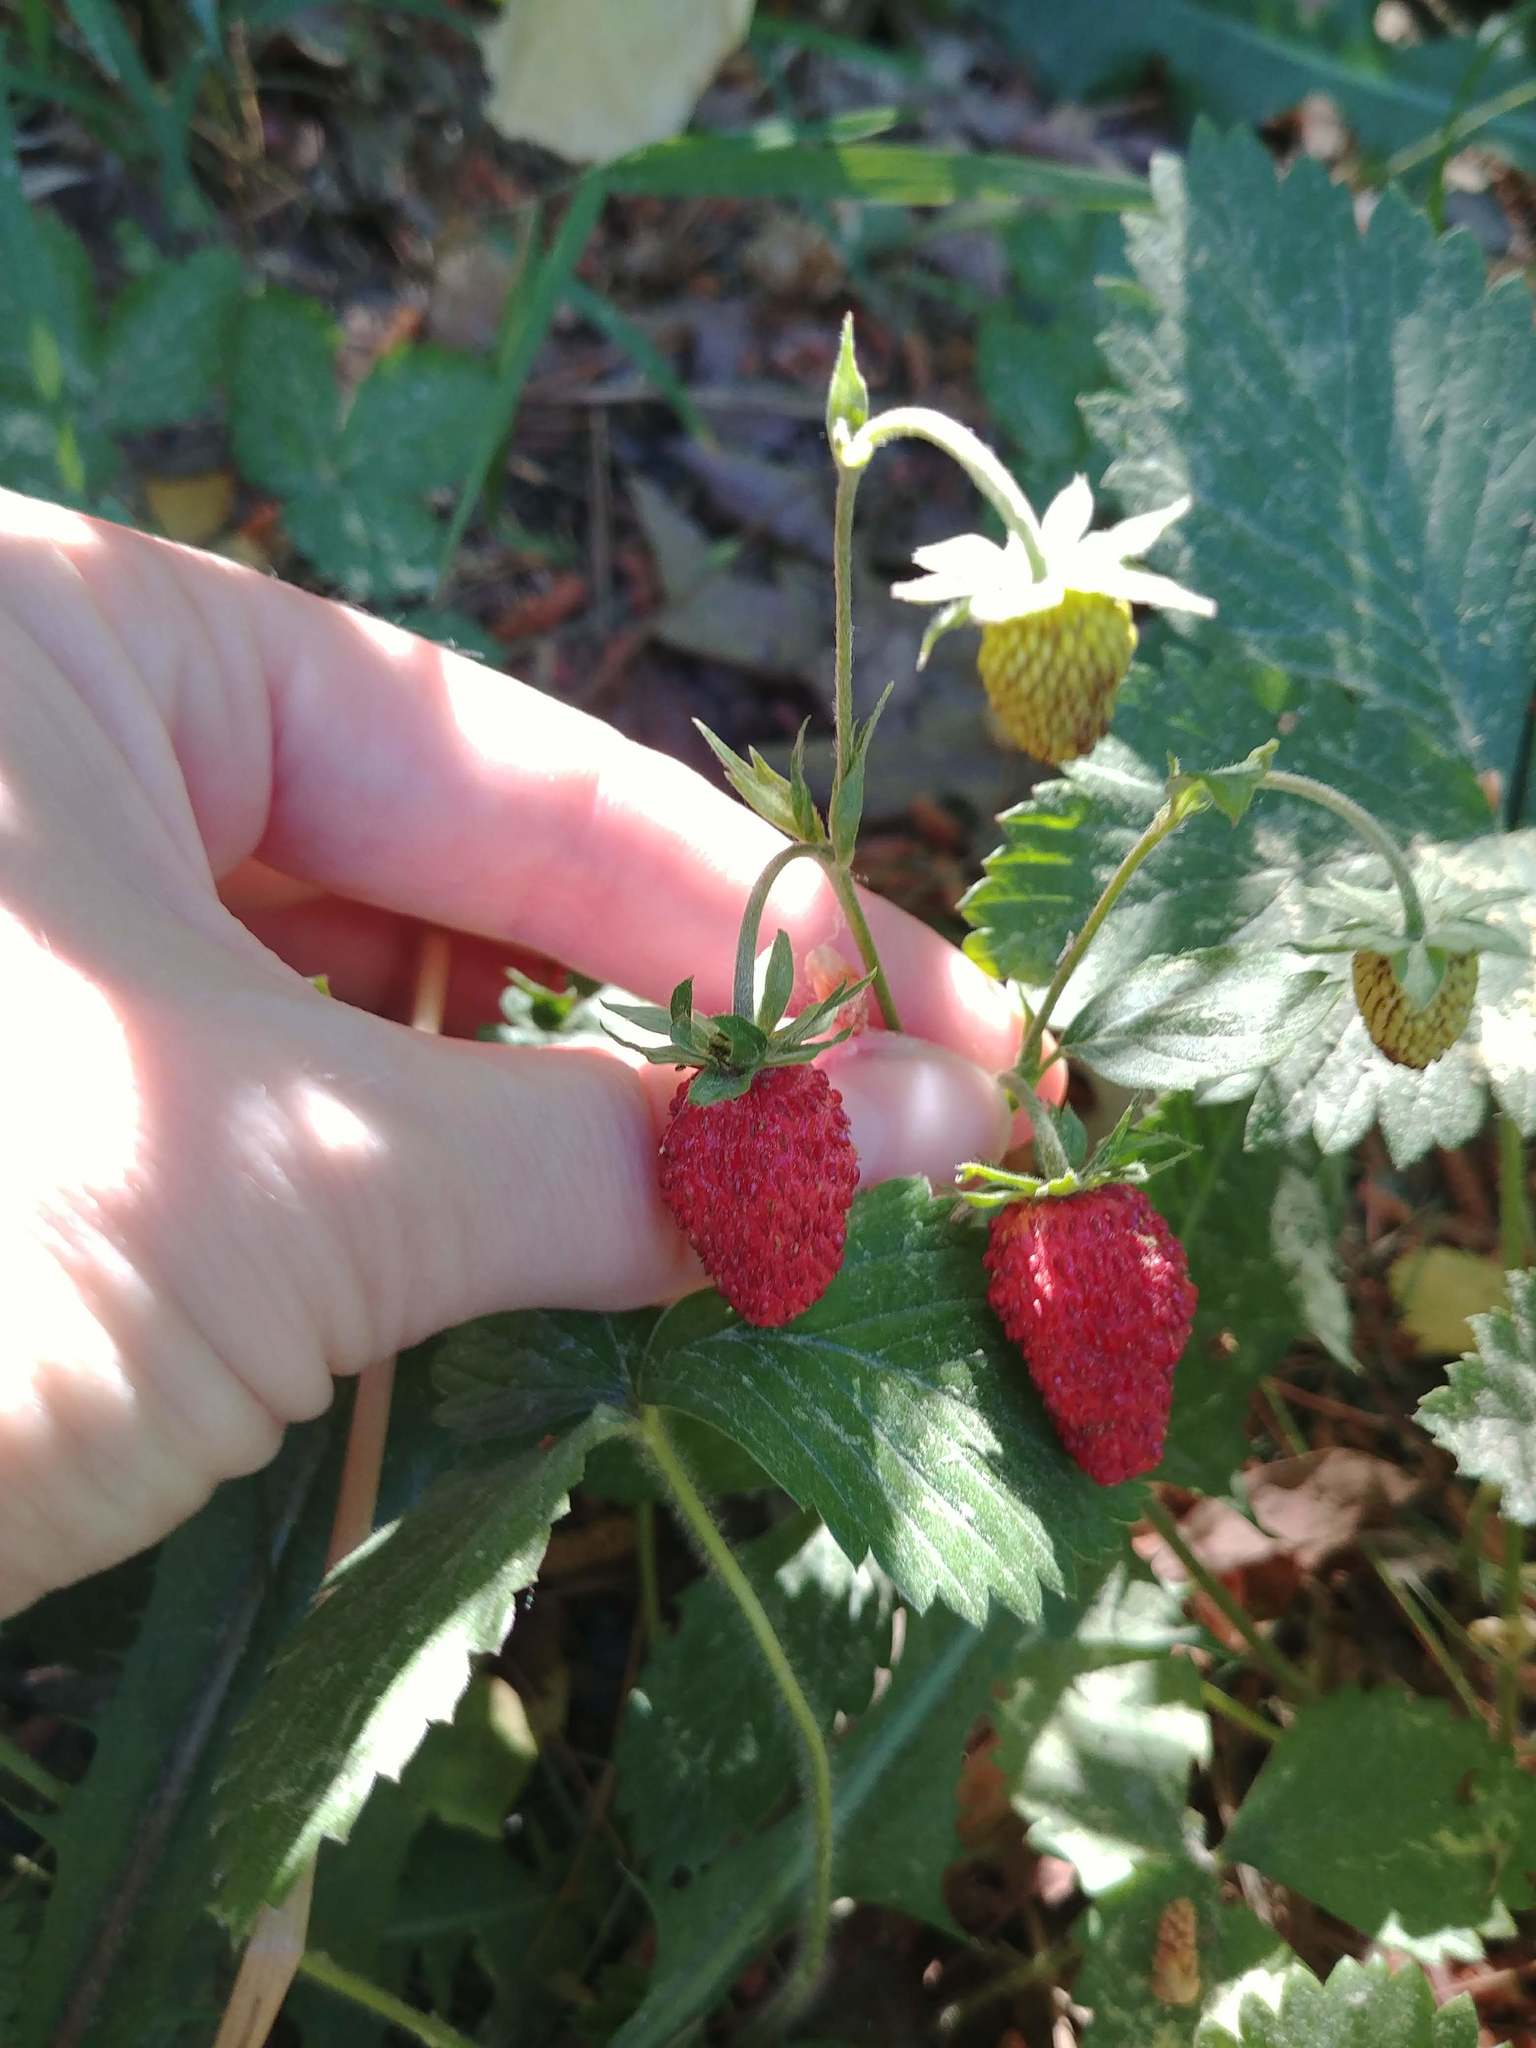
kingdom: Plantae
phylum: Tracheophyta
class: Magnoliopsida
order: Rosales
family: Rosaceae
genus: Fragaria
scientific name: Fragaria vesca
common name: Wild strawberry
